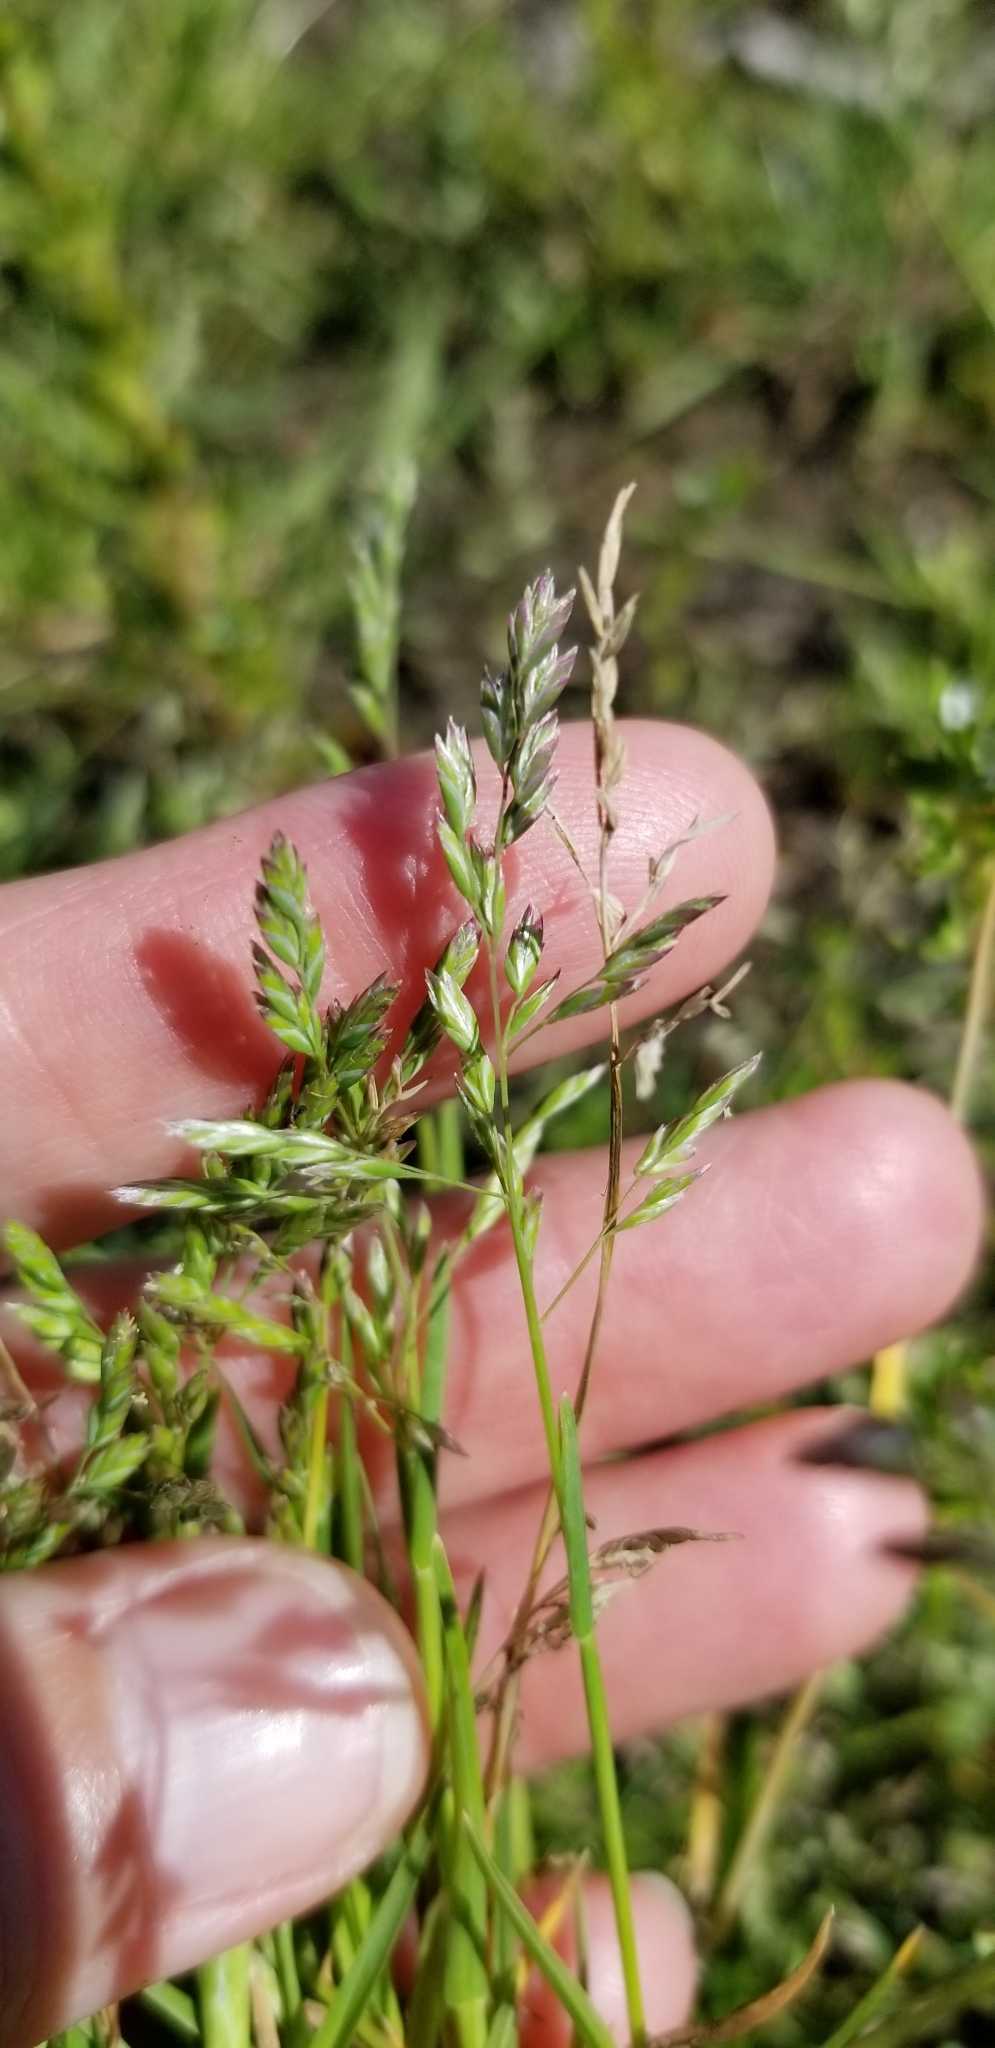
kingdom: Plantae
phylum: Tracheophyta
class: Liliopsida
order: Poales
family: Poaceae
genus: Poa
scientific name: Poa annua
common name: Annual bluegrass
